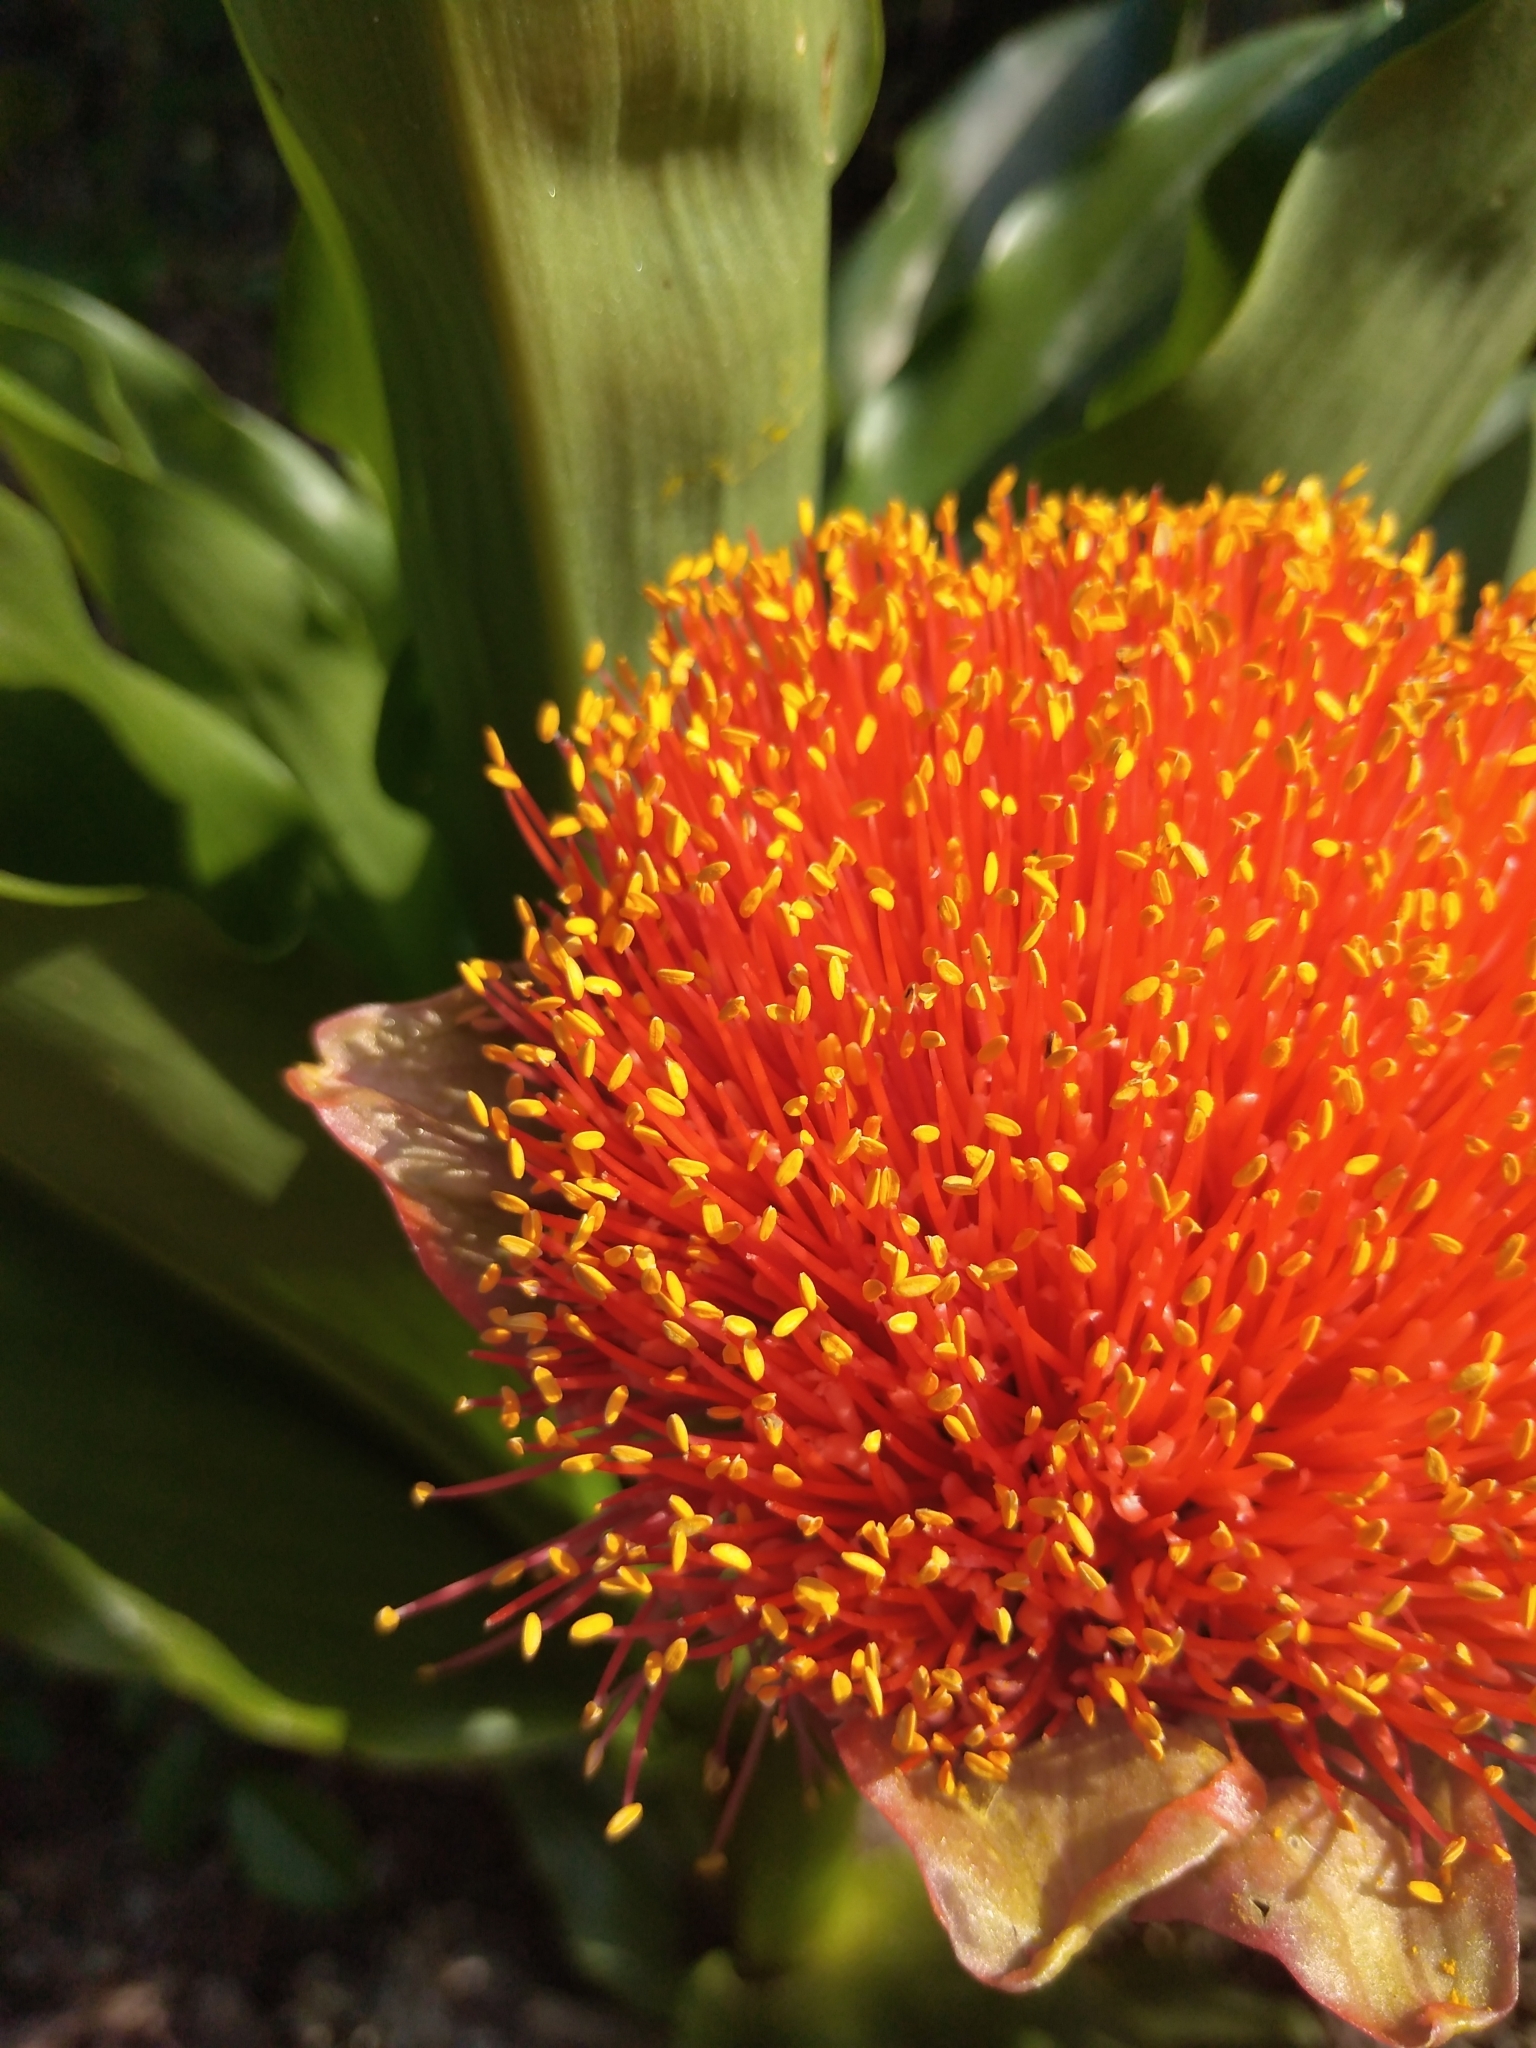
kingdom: Plantae
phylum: Tracheophyta
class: Liliopsida
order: Asparagales
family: Amaryllidaceae
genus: Scadoxus
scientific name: Scadoxus puniceus
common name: Royal-paintbrush
